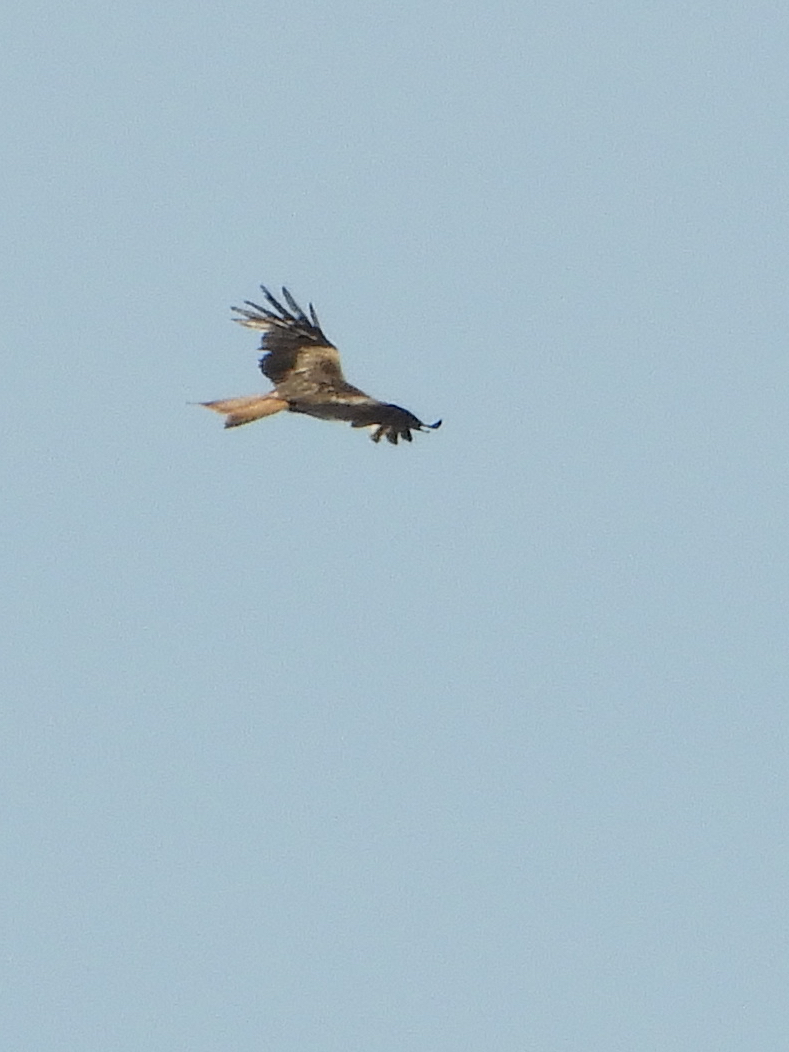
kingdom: Animalia
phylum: Chordata
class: Aves
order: Accipitriformes
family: Accipitridae
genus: Milvus
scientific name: Milvus milvus
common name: Red kite
